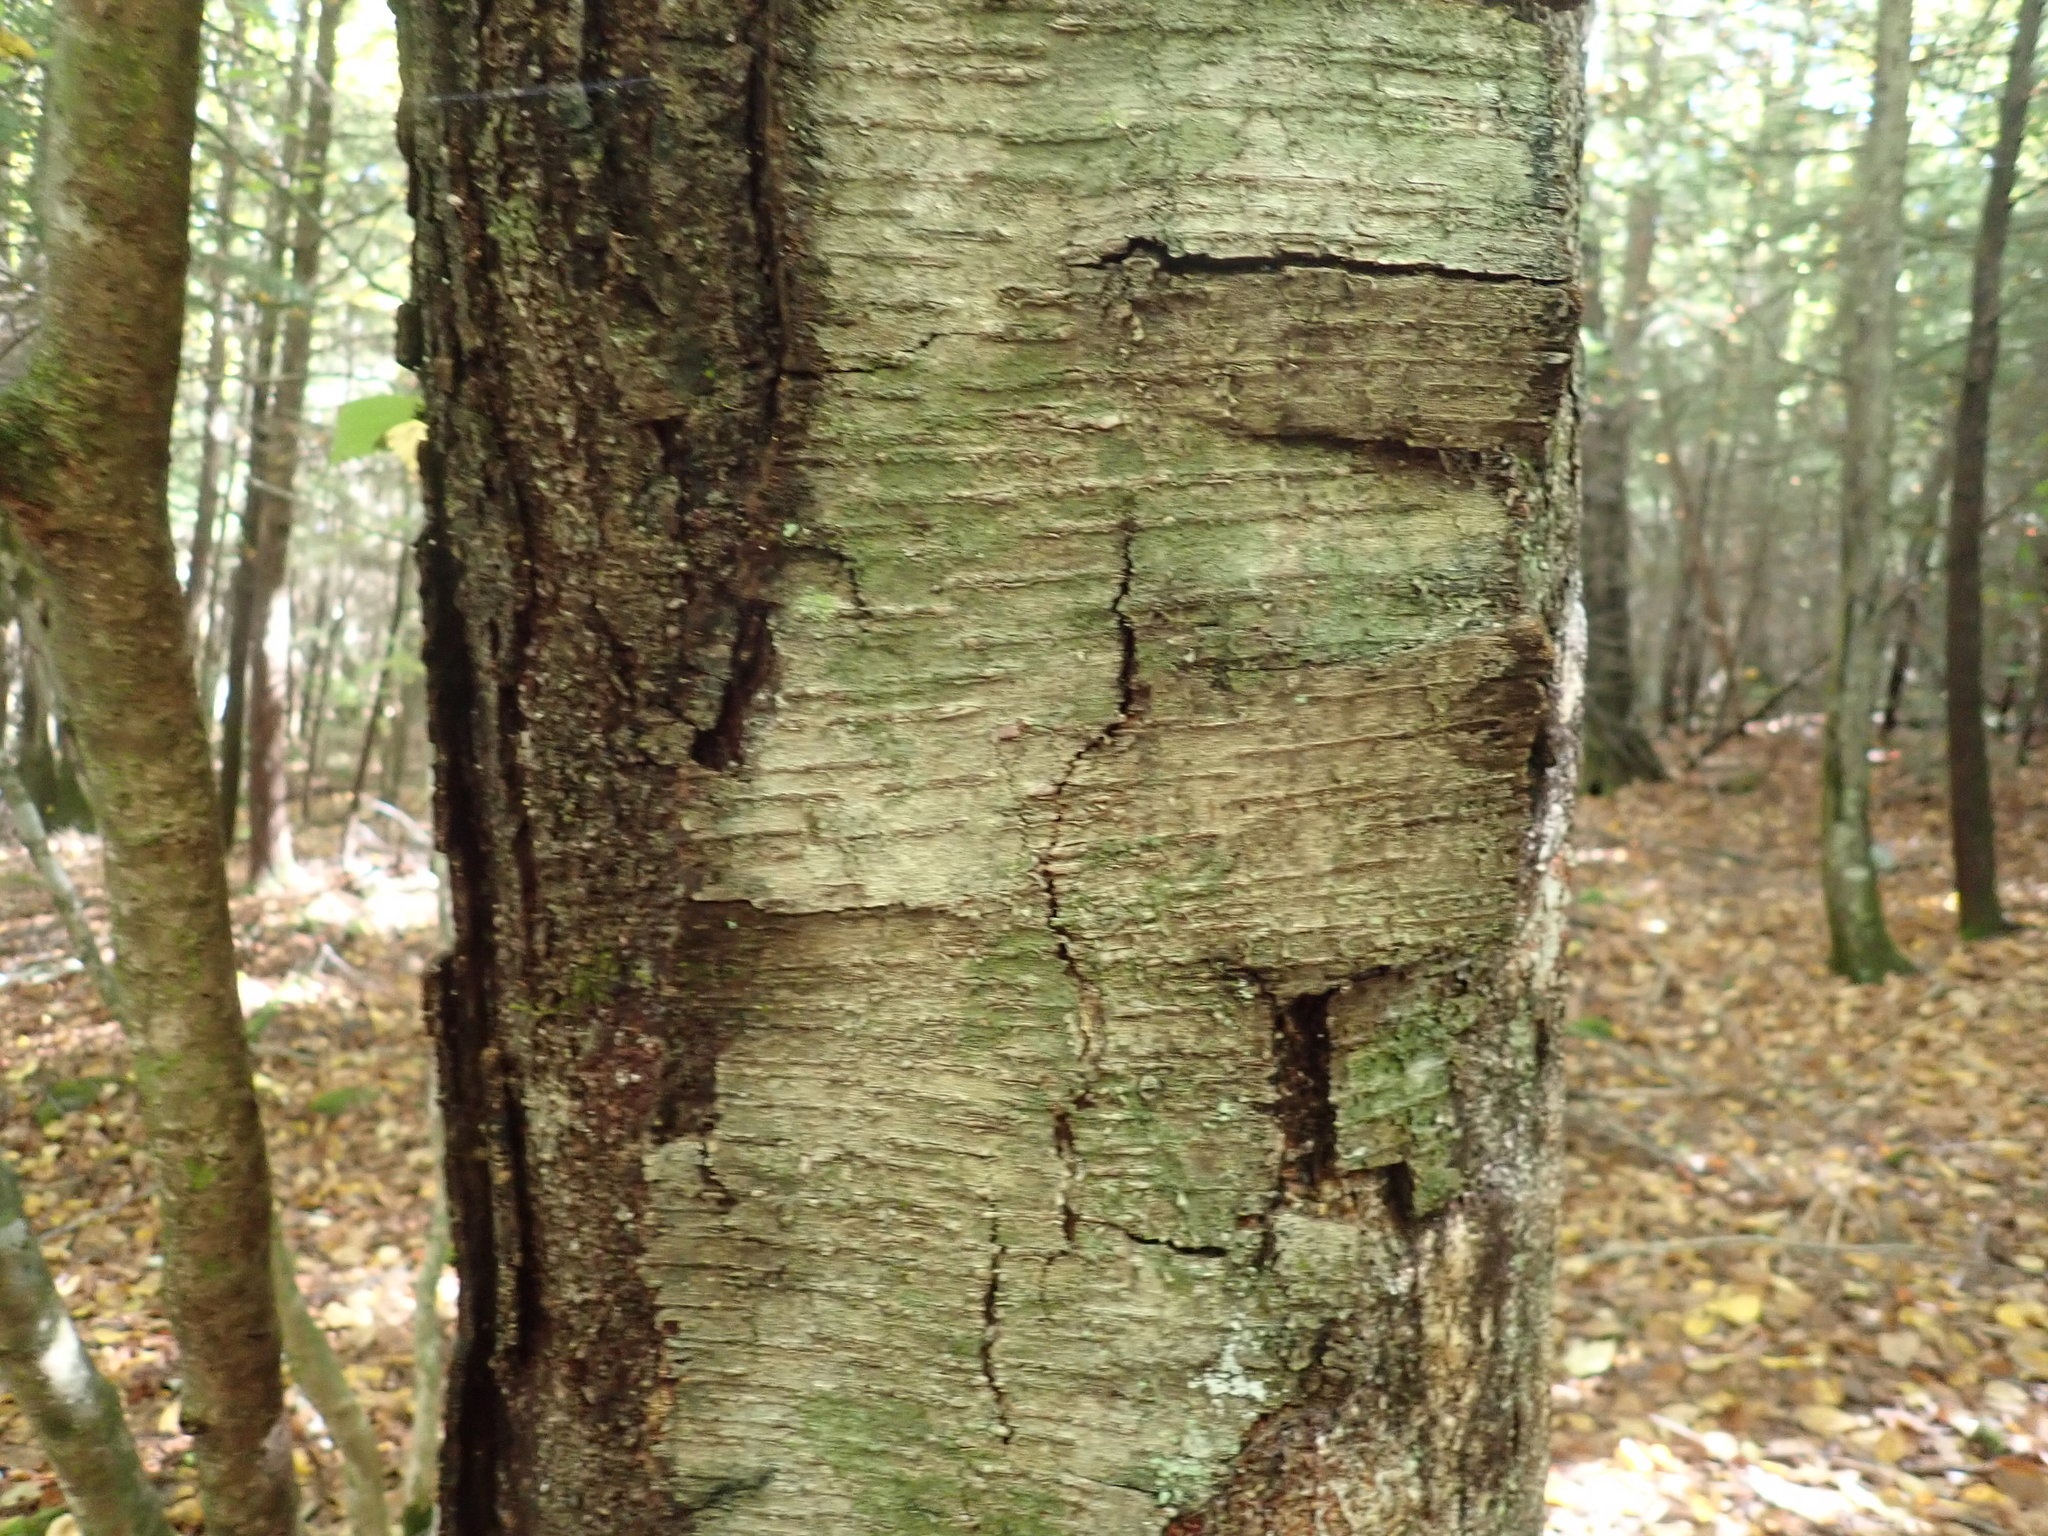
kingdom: Plantae
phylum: Tracheophyta
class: Magnoliopsida
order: Fagales
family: Betulaceae
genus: Betula
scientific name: Betula lenta
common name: Black birch
